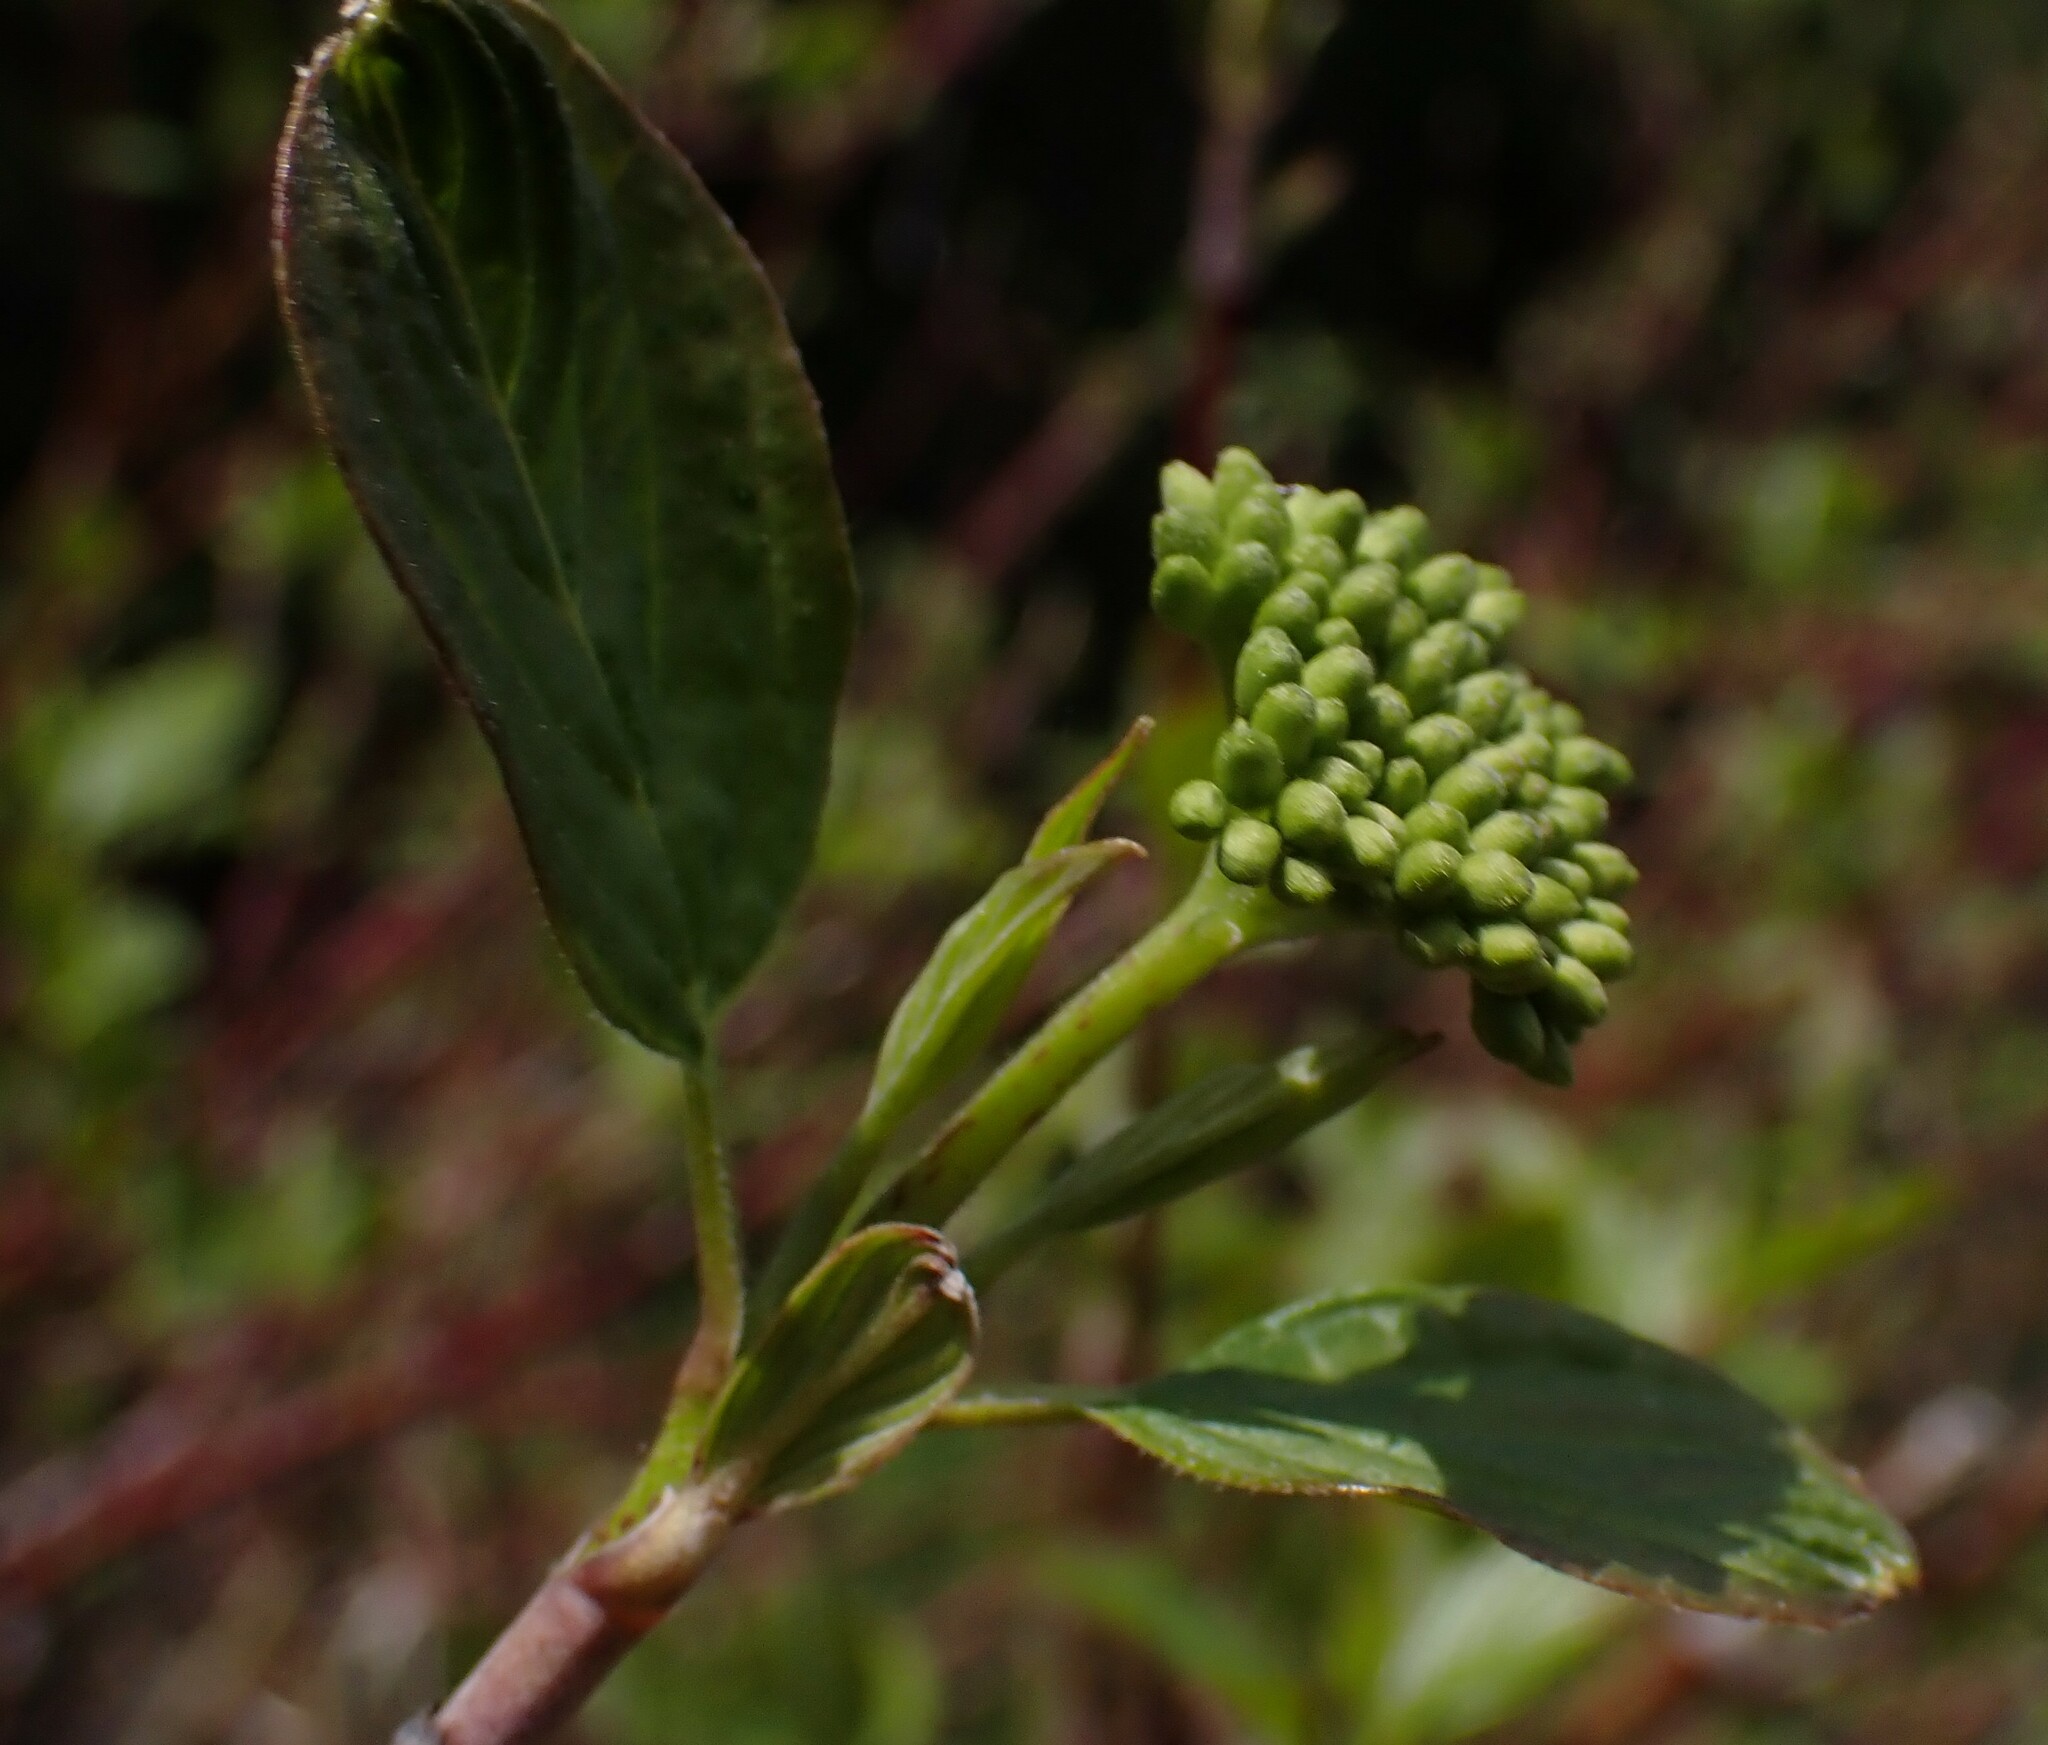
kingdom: Plantae
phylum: Tracheophyta
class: Magnoliopsida
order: Cornales
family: Cornaceae
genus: Cornus
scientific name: Cornus sericea
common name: Red-osier dogwood
